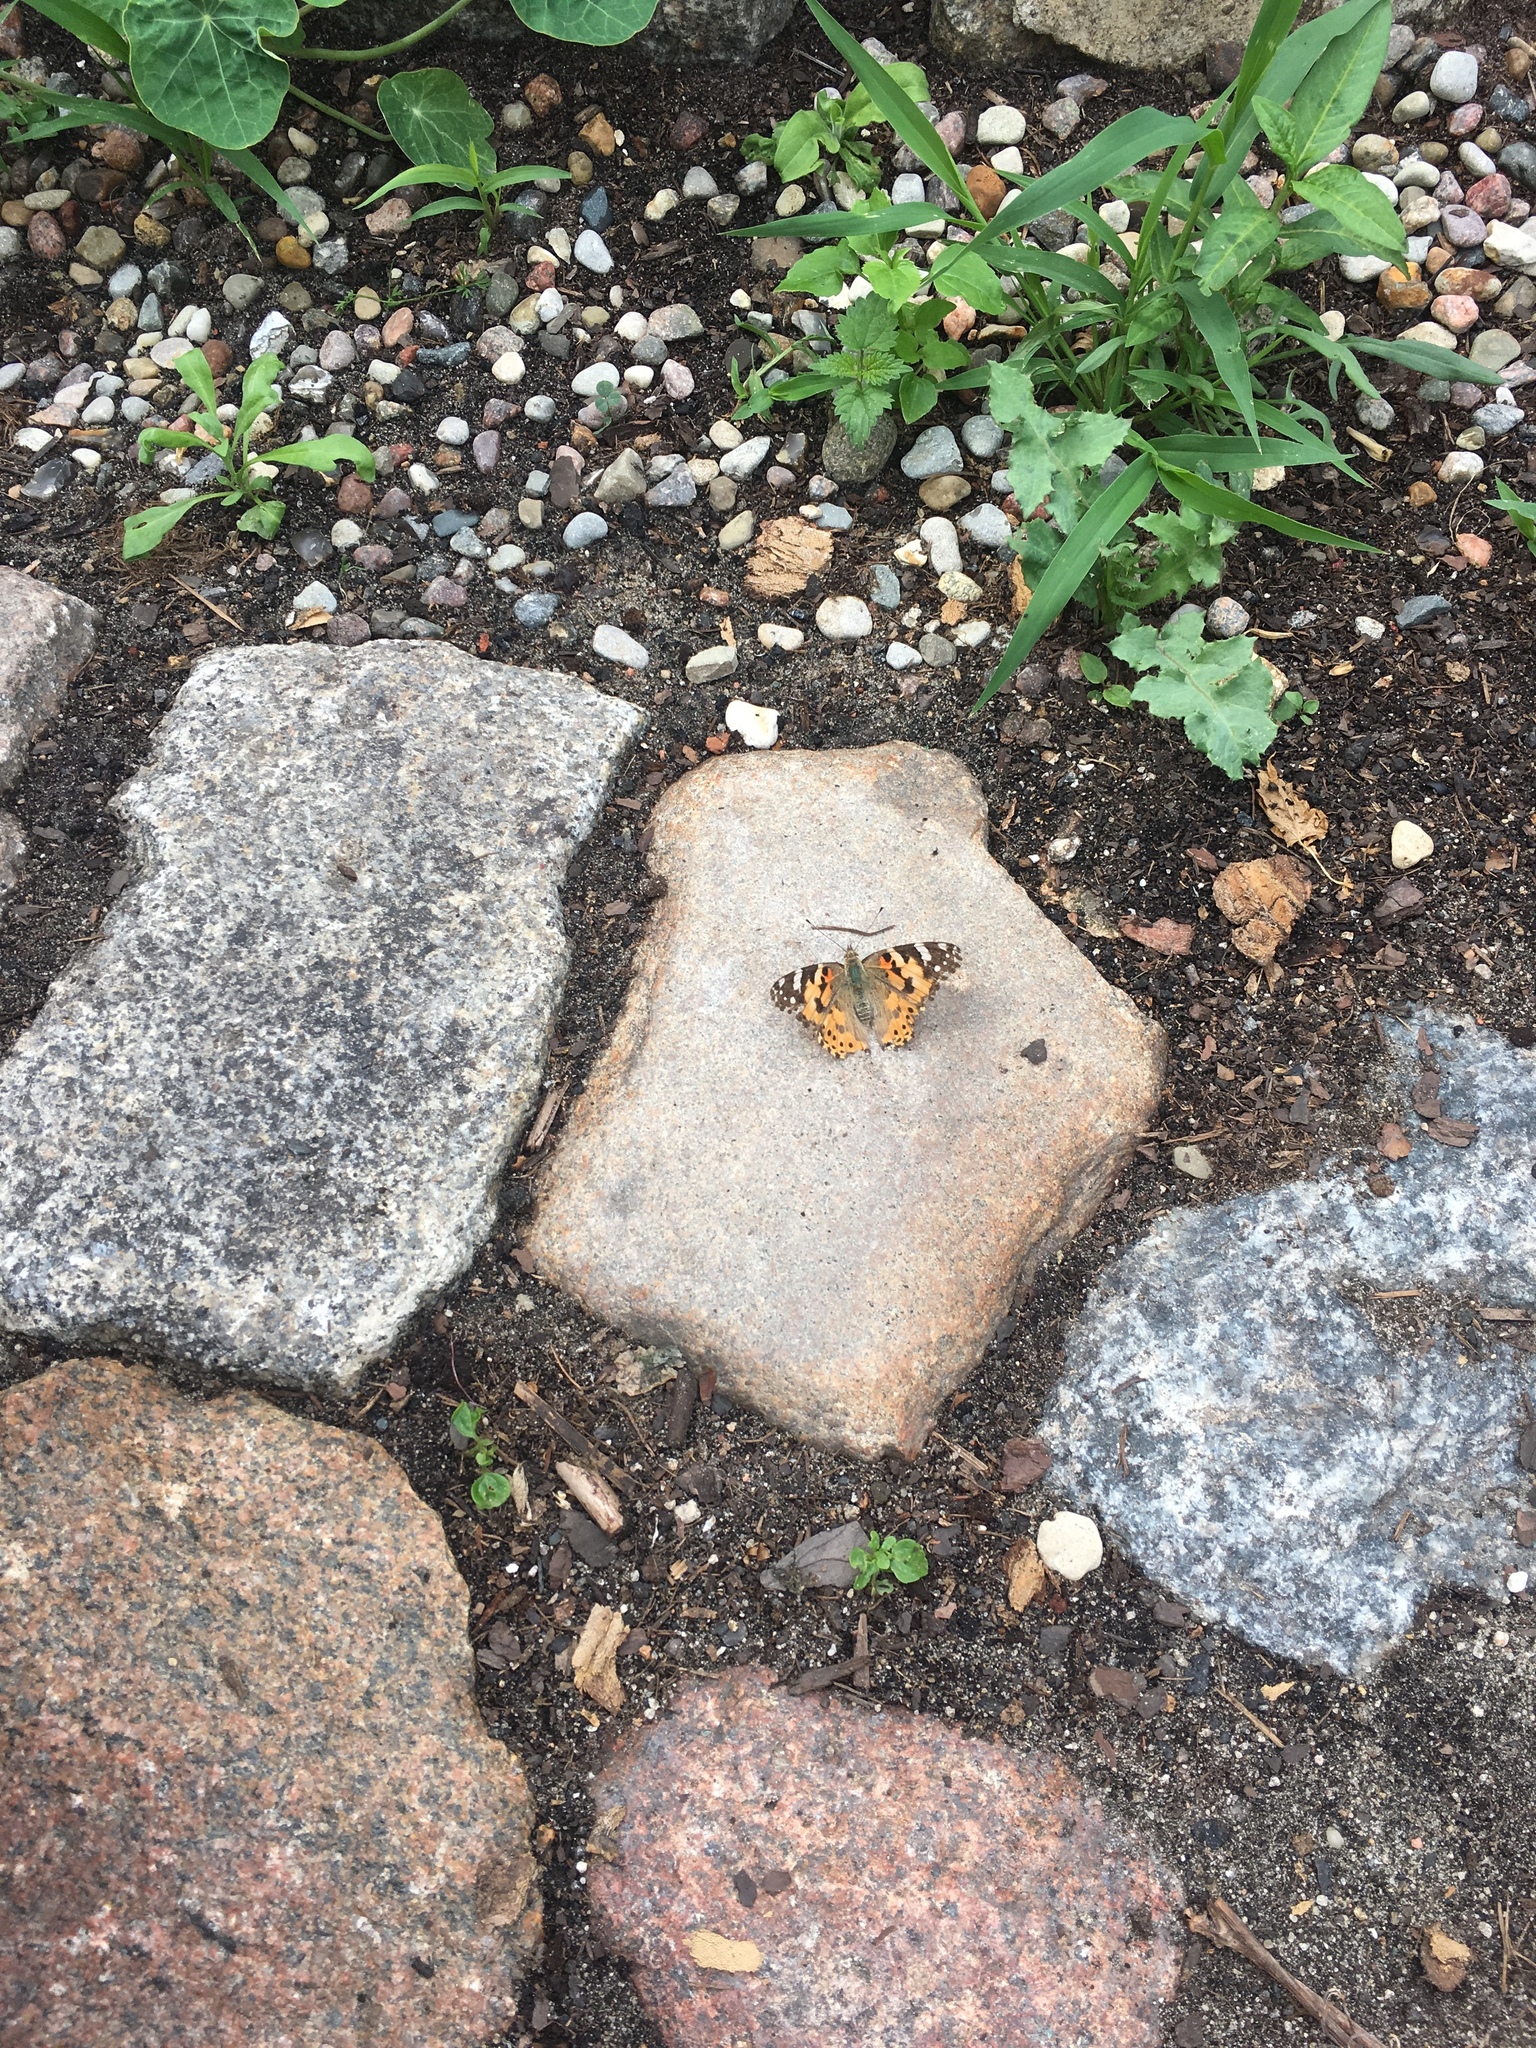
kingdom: Animalia
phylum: Arthropoda
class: Insecta
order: Lepidoptera
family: Nymphalidae
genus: Vanessa
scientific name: Vanessa cardui
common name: Painted lady
